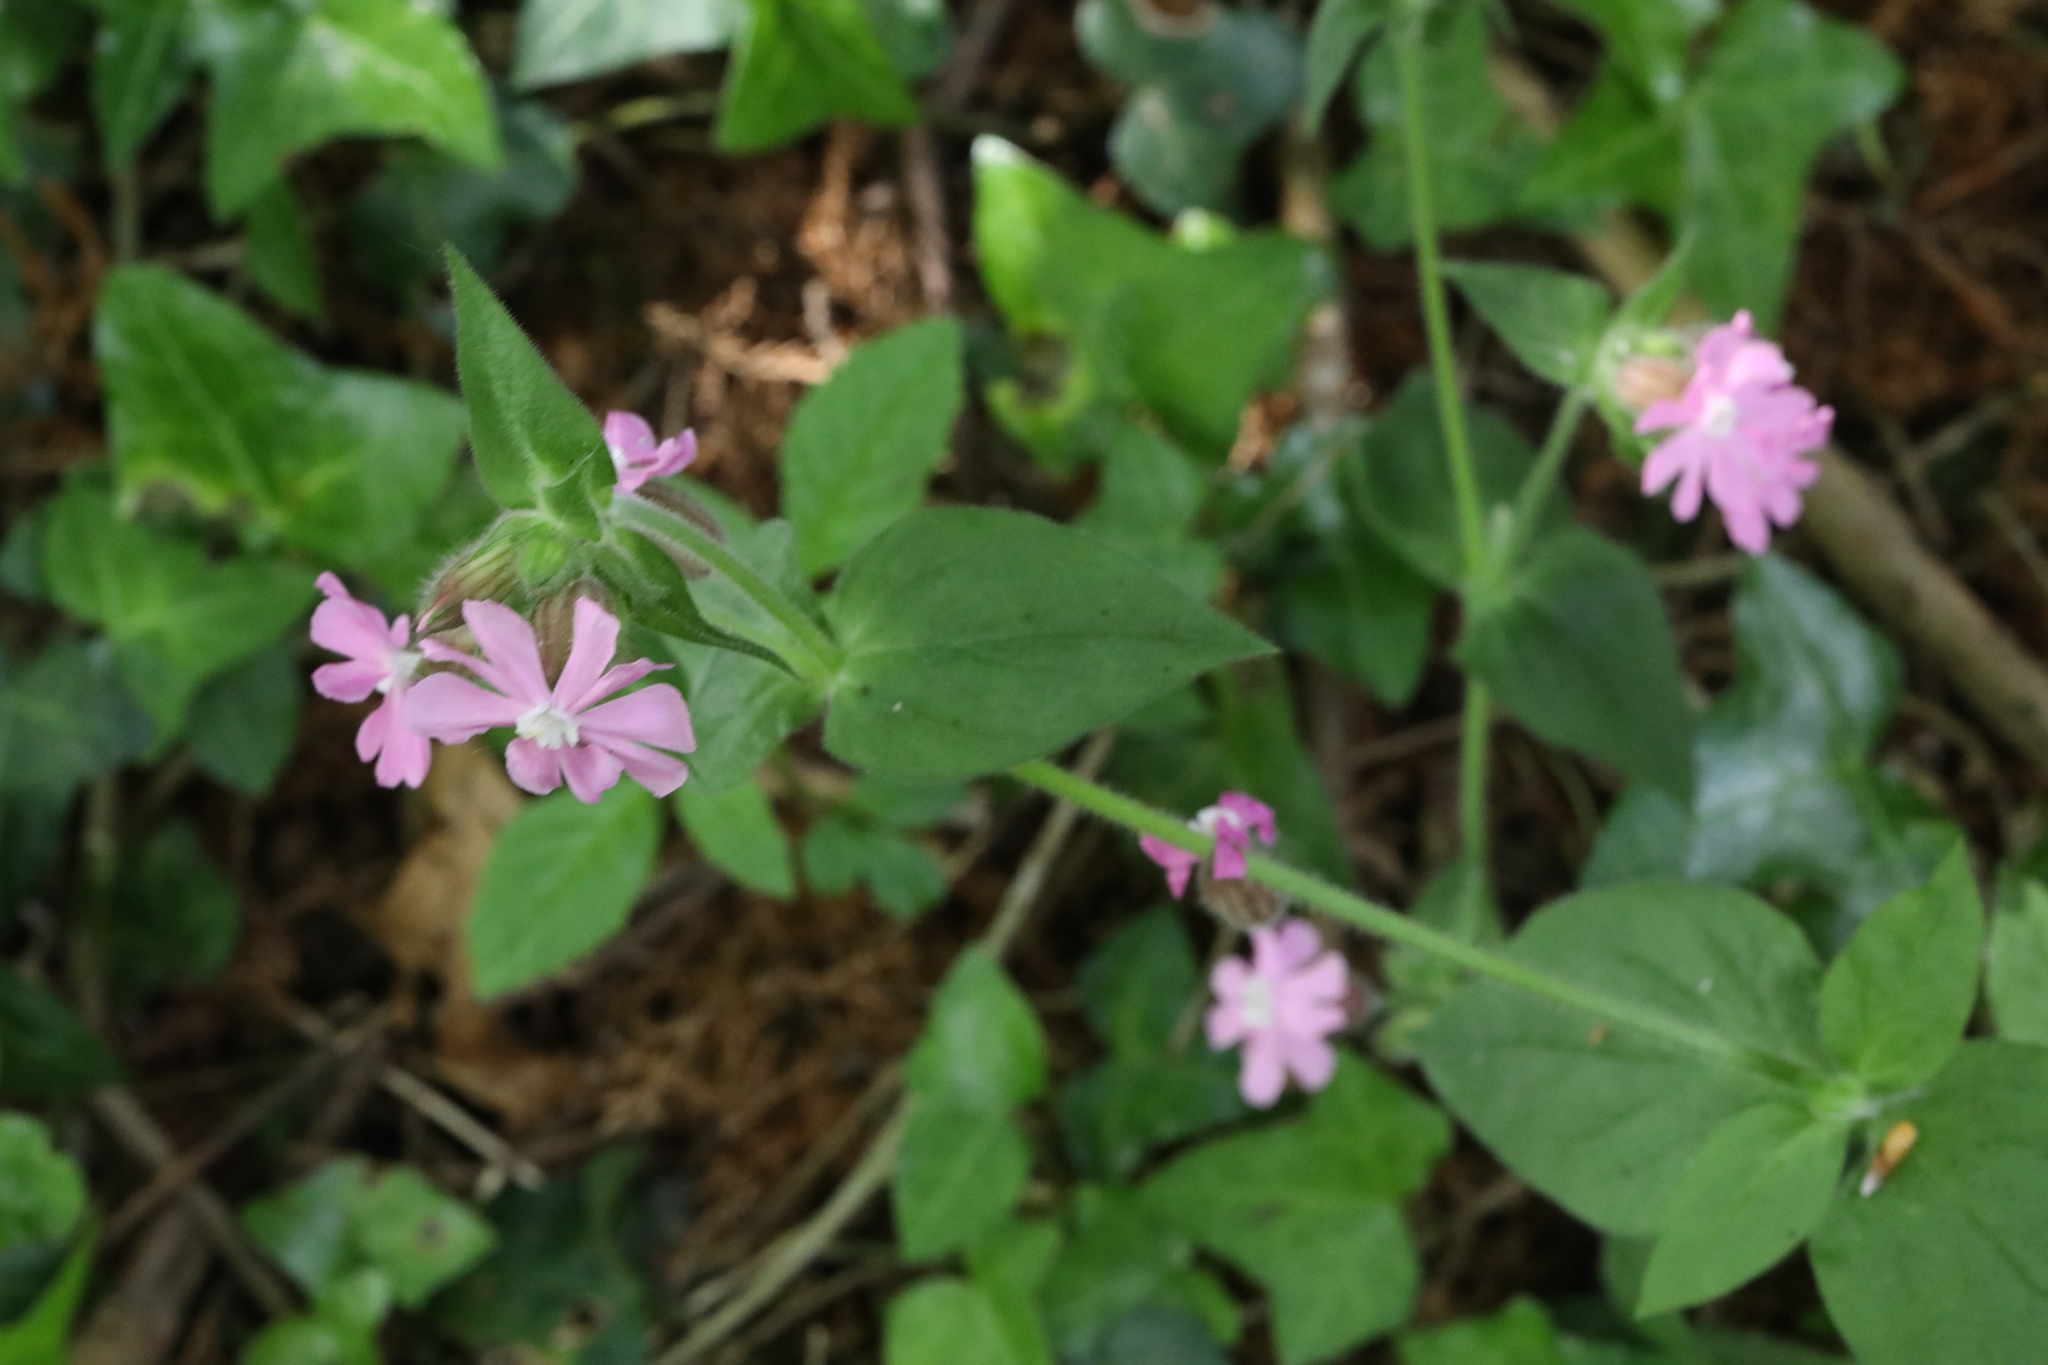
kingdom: Plantae
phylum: Tracheophyta
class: Magnoliopsida
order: Caryophyllales
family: Caryophyllaceae
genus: Silene
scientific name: Silene dioica
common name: Red campion
